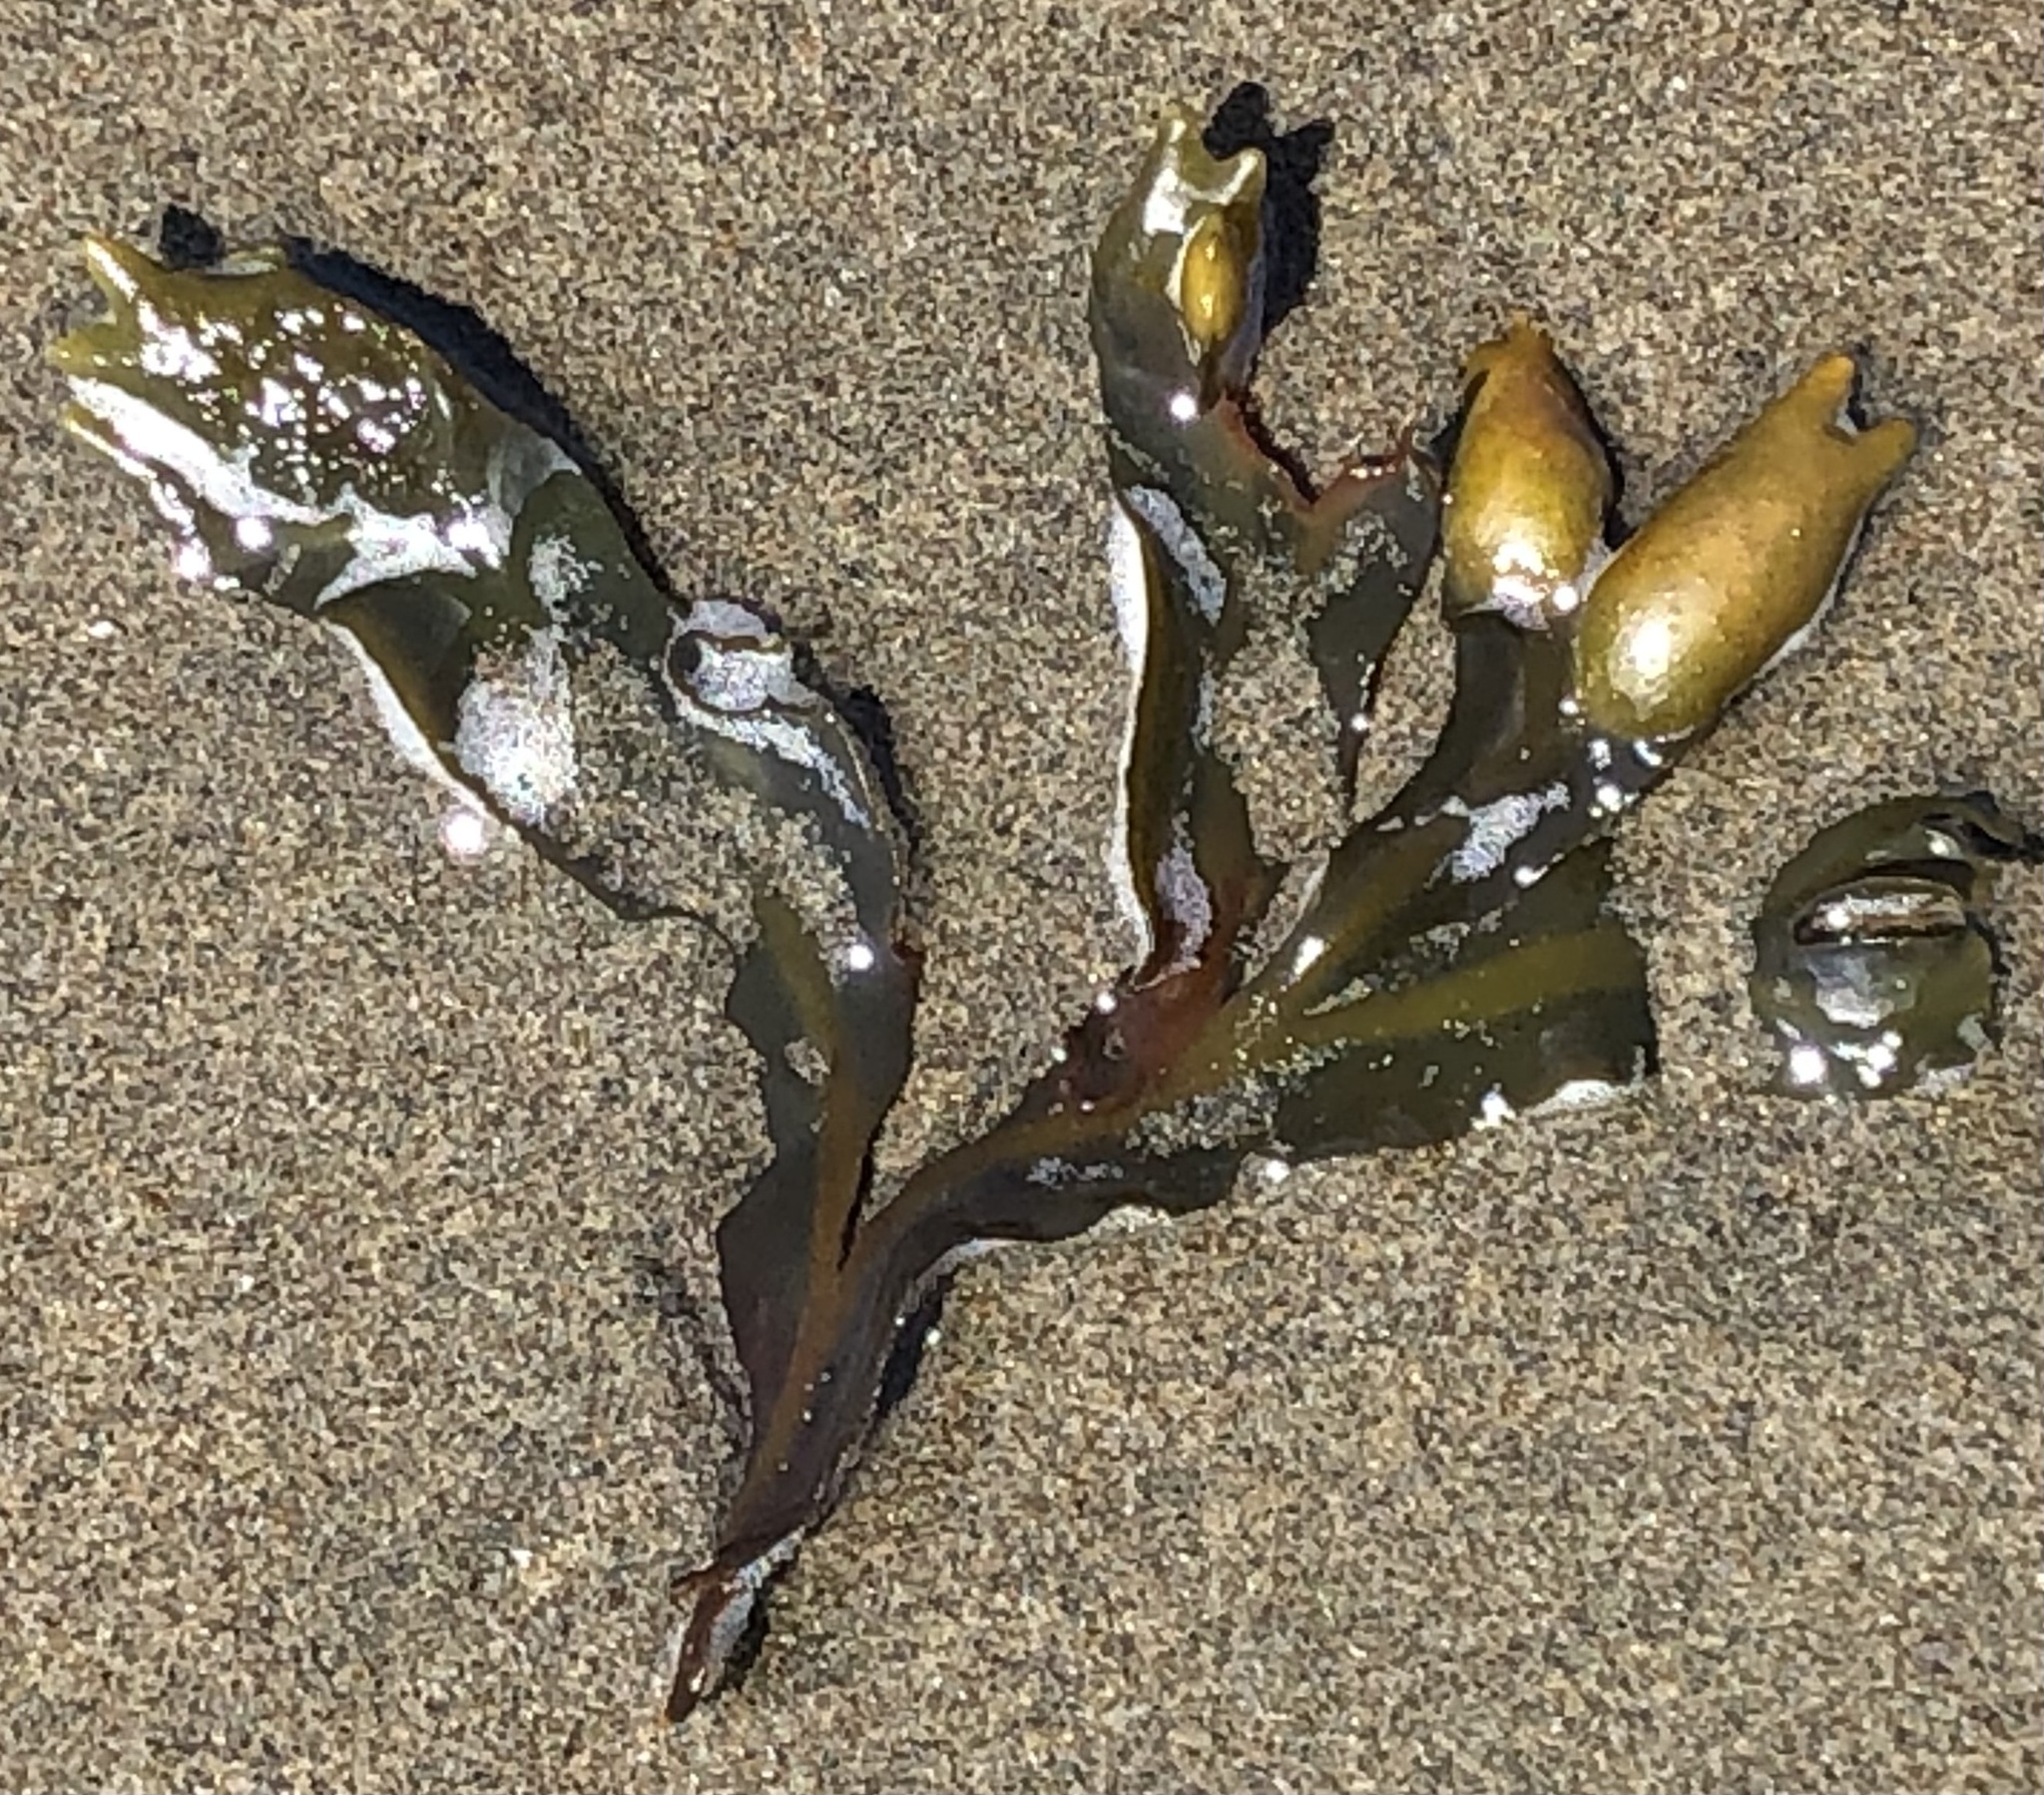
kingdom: Chromista
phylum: Ochrophyta
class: Phaeophyceae
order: Fucales
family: Fucaceae
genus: Fucus
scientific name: Fucus distichus
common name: Rockweed
